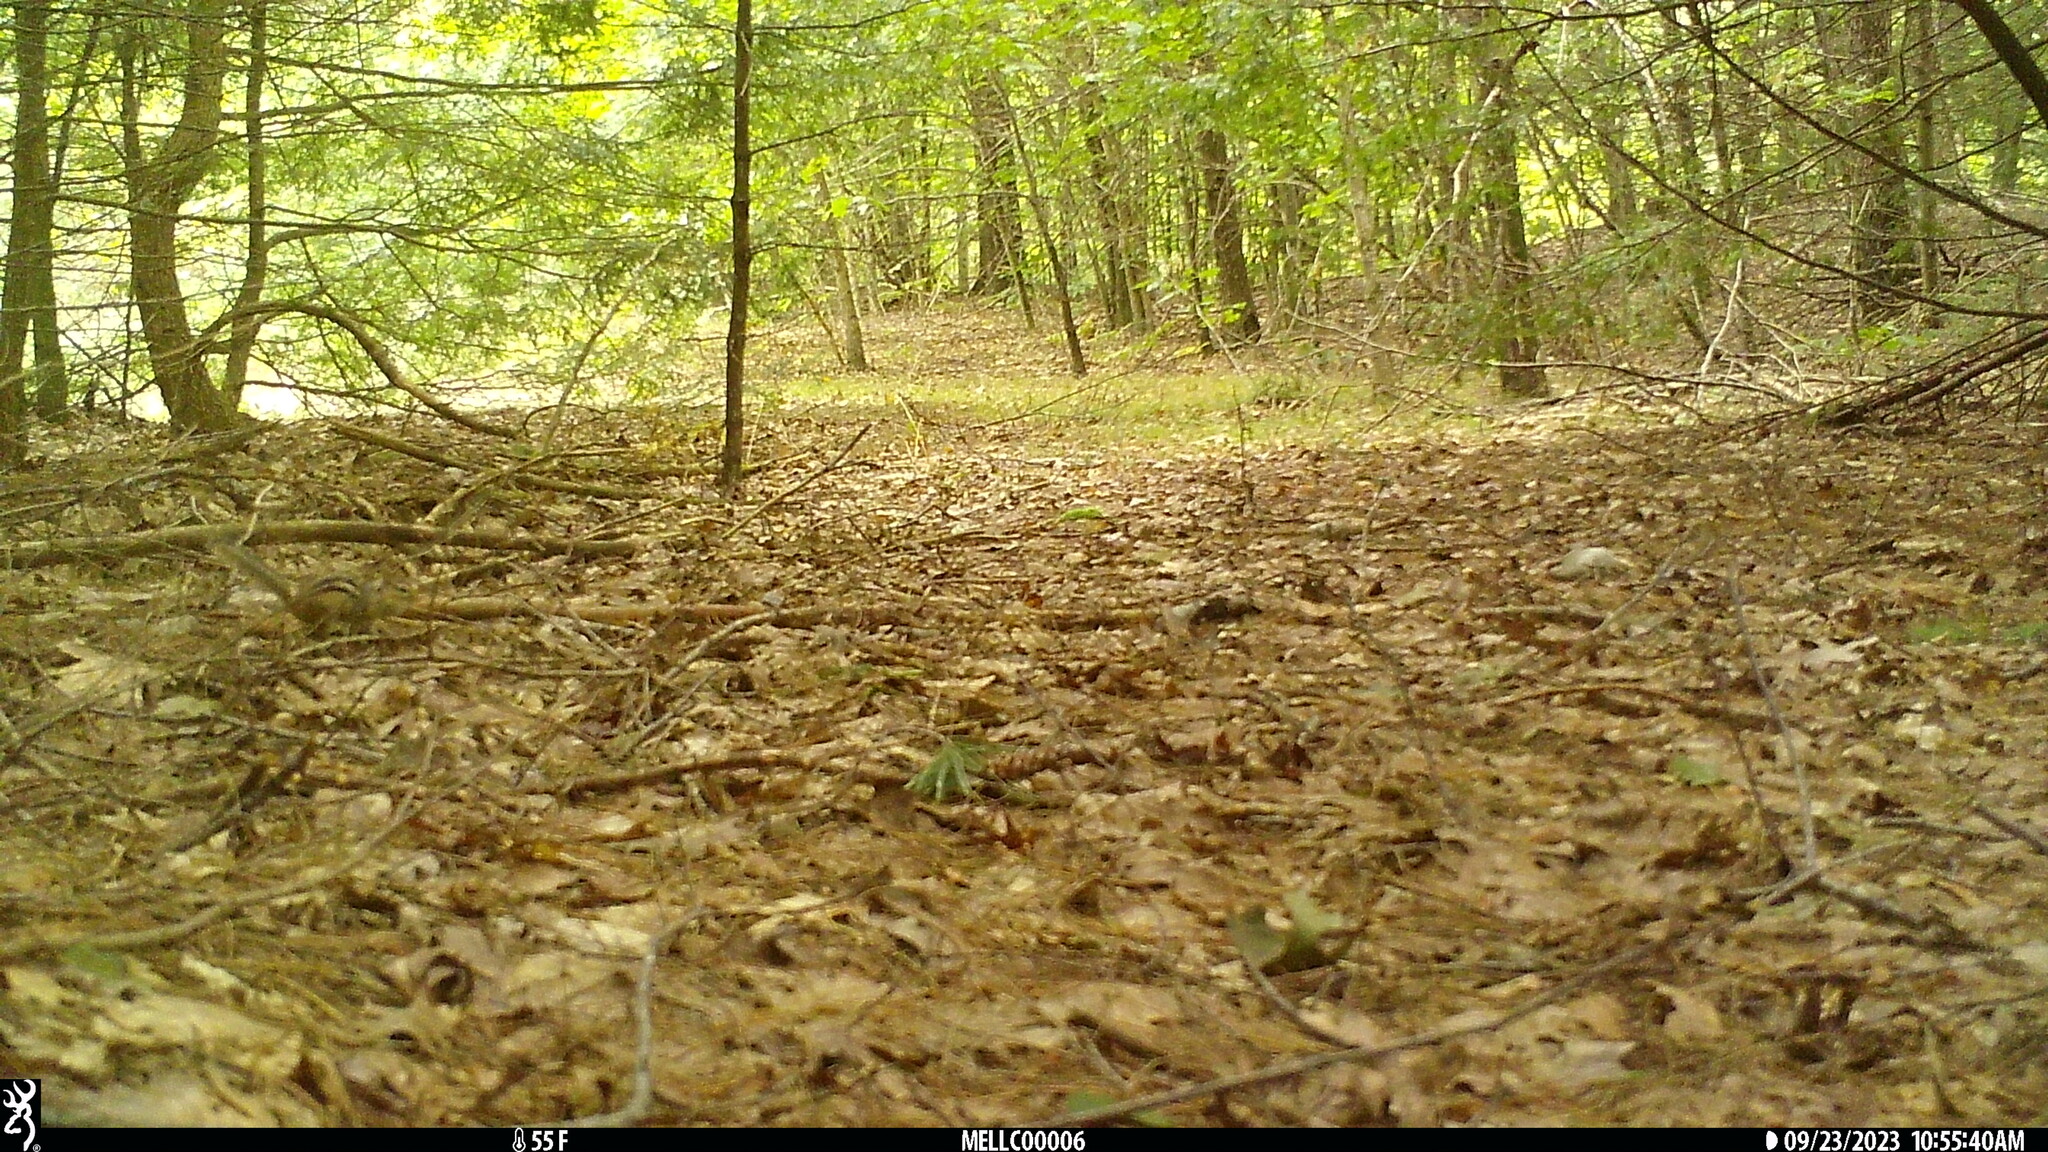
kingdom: Animalia
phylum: Chordata
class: Mammalia
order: Rodentia
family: Sciuridae
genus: Tamias
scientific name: Tamias striatus
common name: Eastern chipmunk
